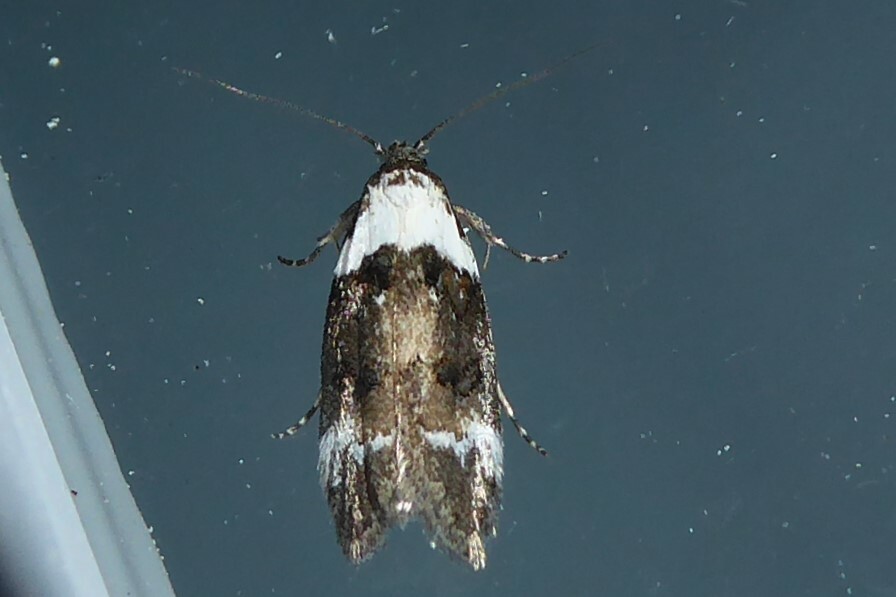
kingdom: Animalia
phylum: Arthropoda
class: Insecta
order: Lepidoptera
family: Oecophoridae
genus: Trachypepla
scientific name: Trachypepla conspicuella
